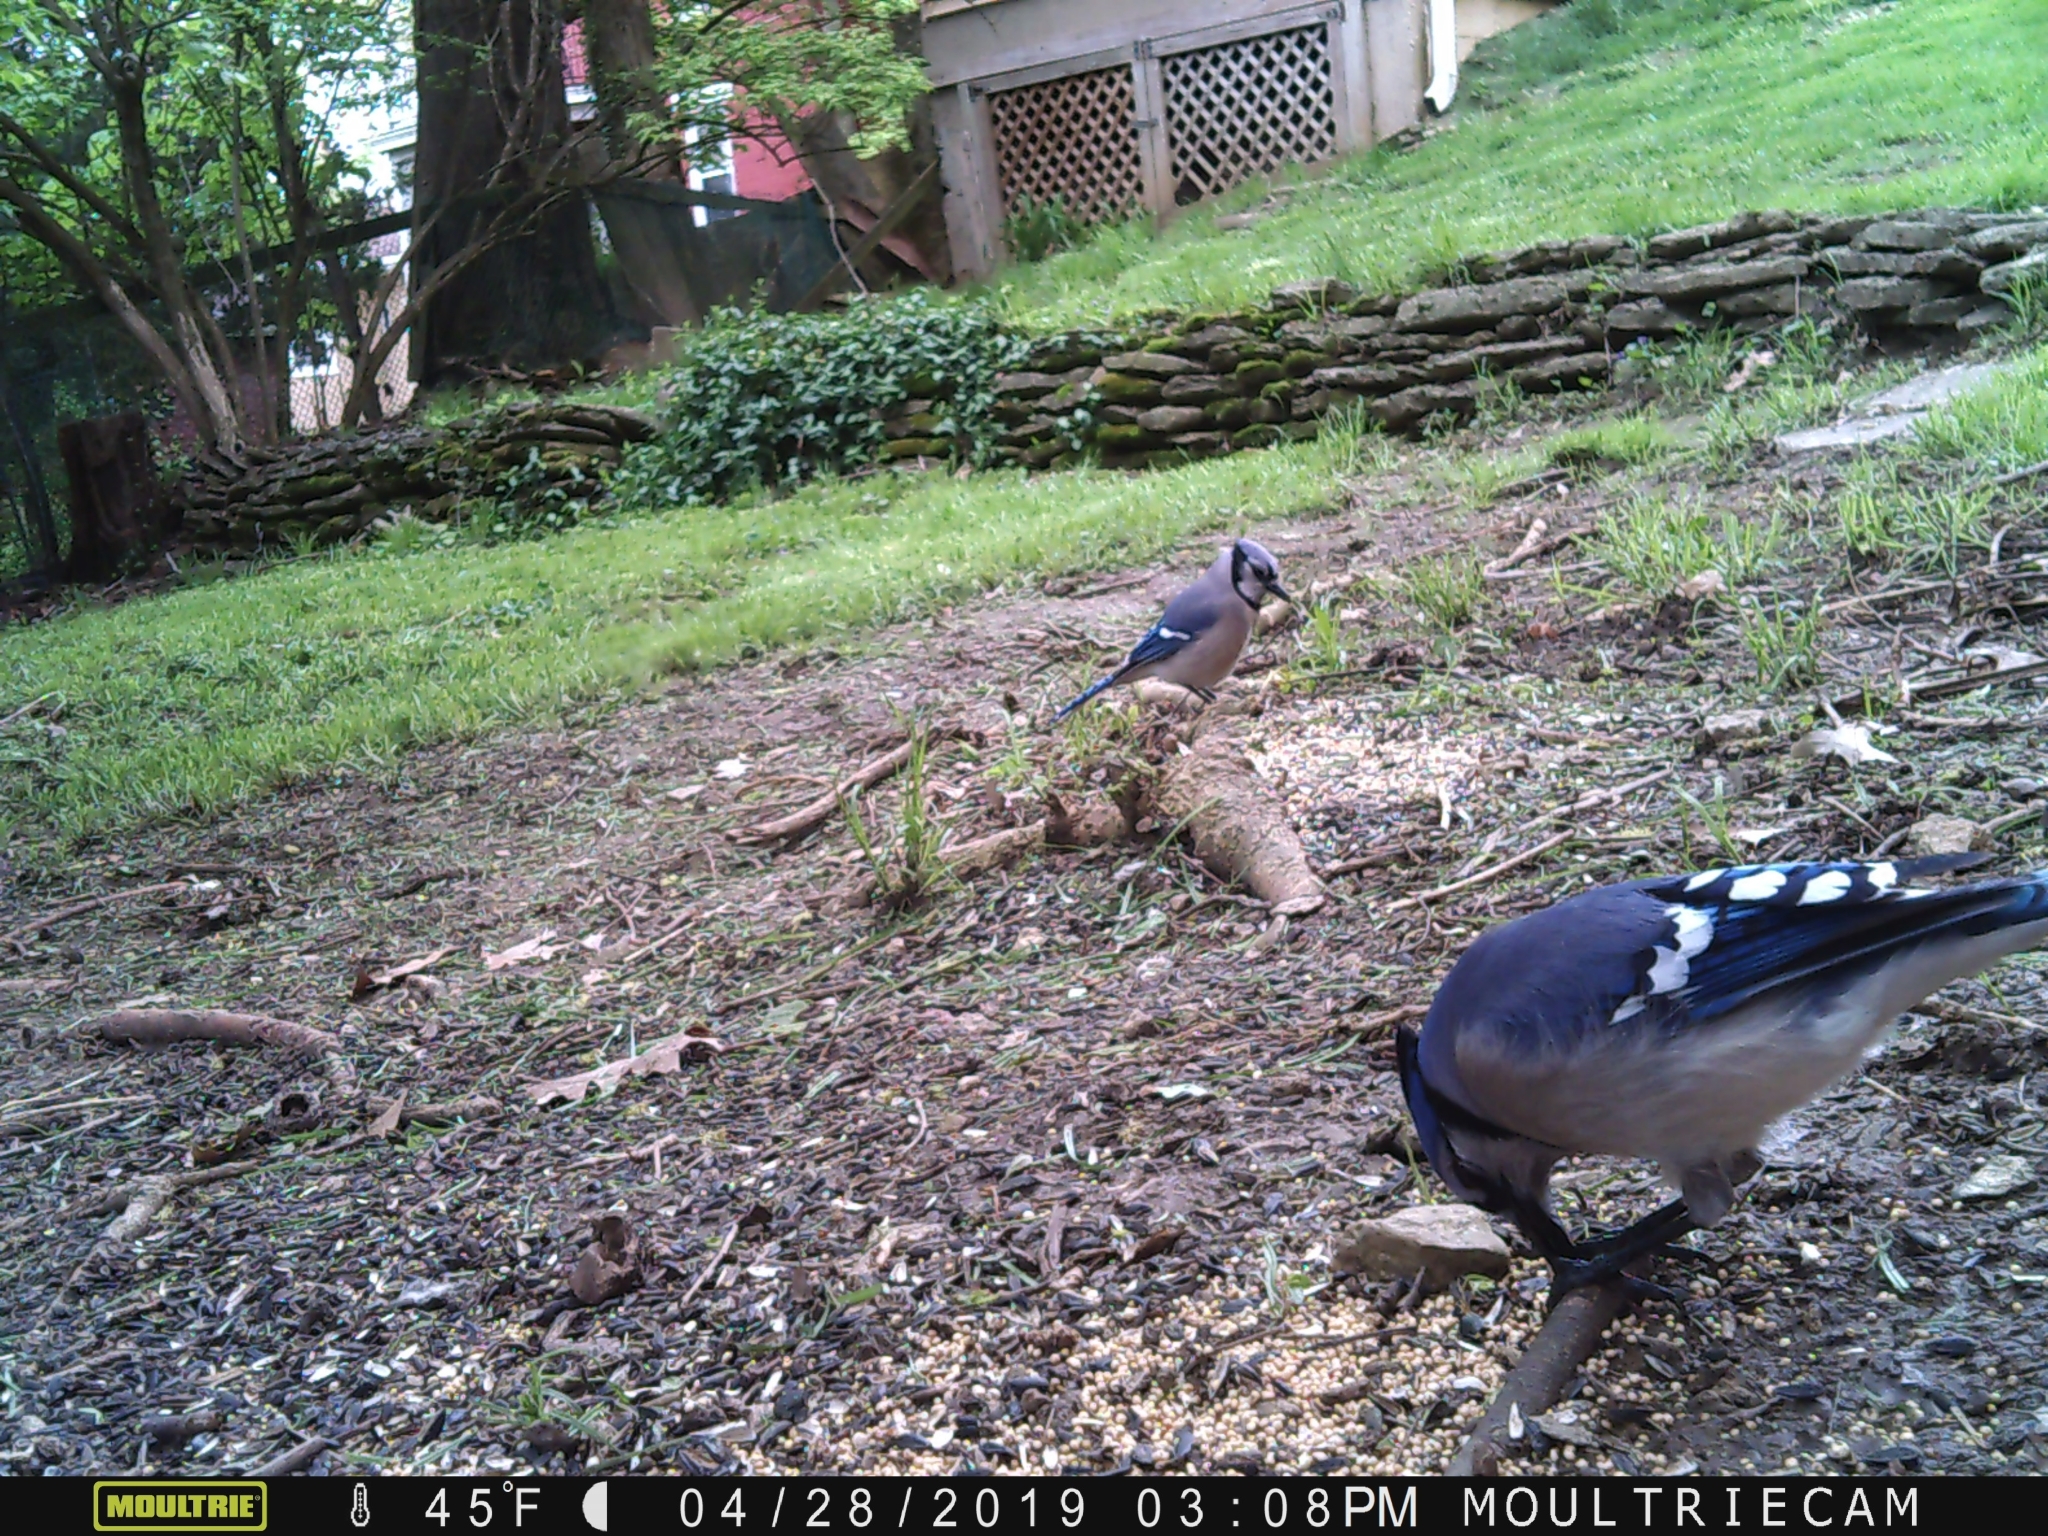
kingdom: Animalia
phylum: Chordata
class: Aves
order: Passeriformes
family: Corvidae
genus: Cyanocitta
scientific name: Cyanocitta cristata
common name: Blue jay
